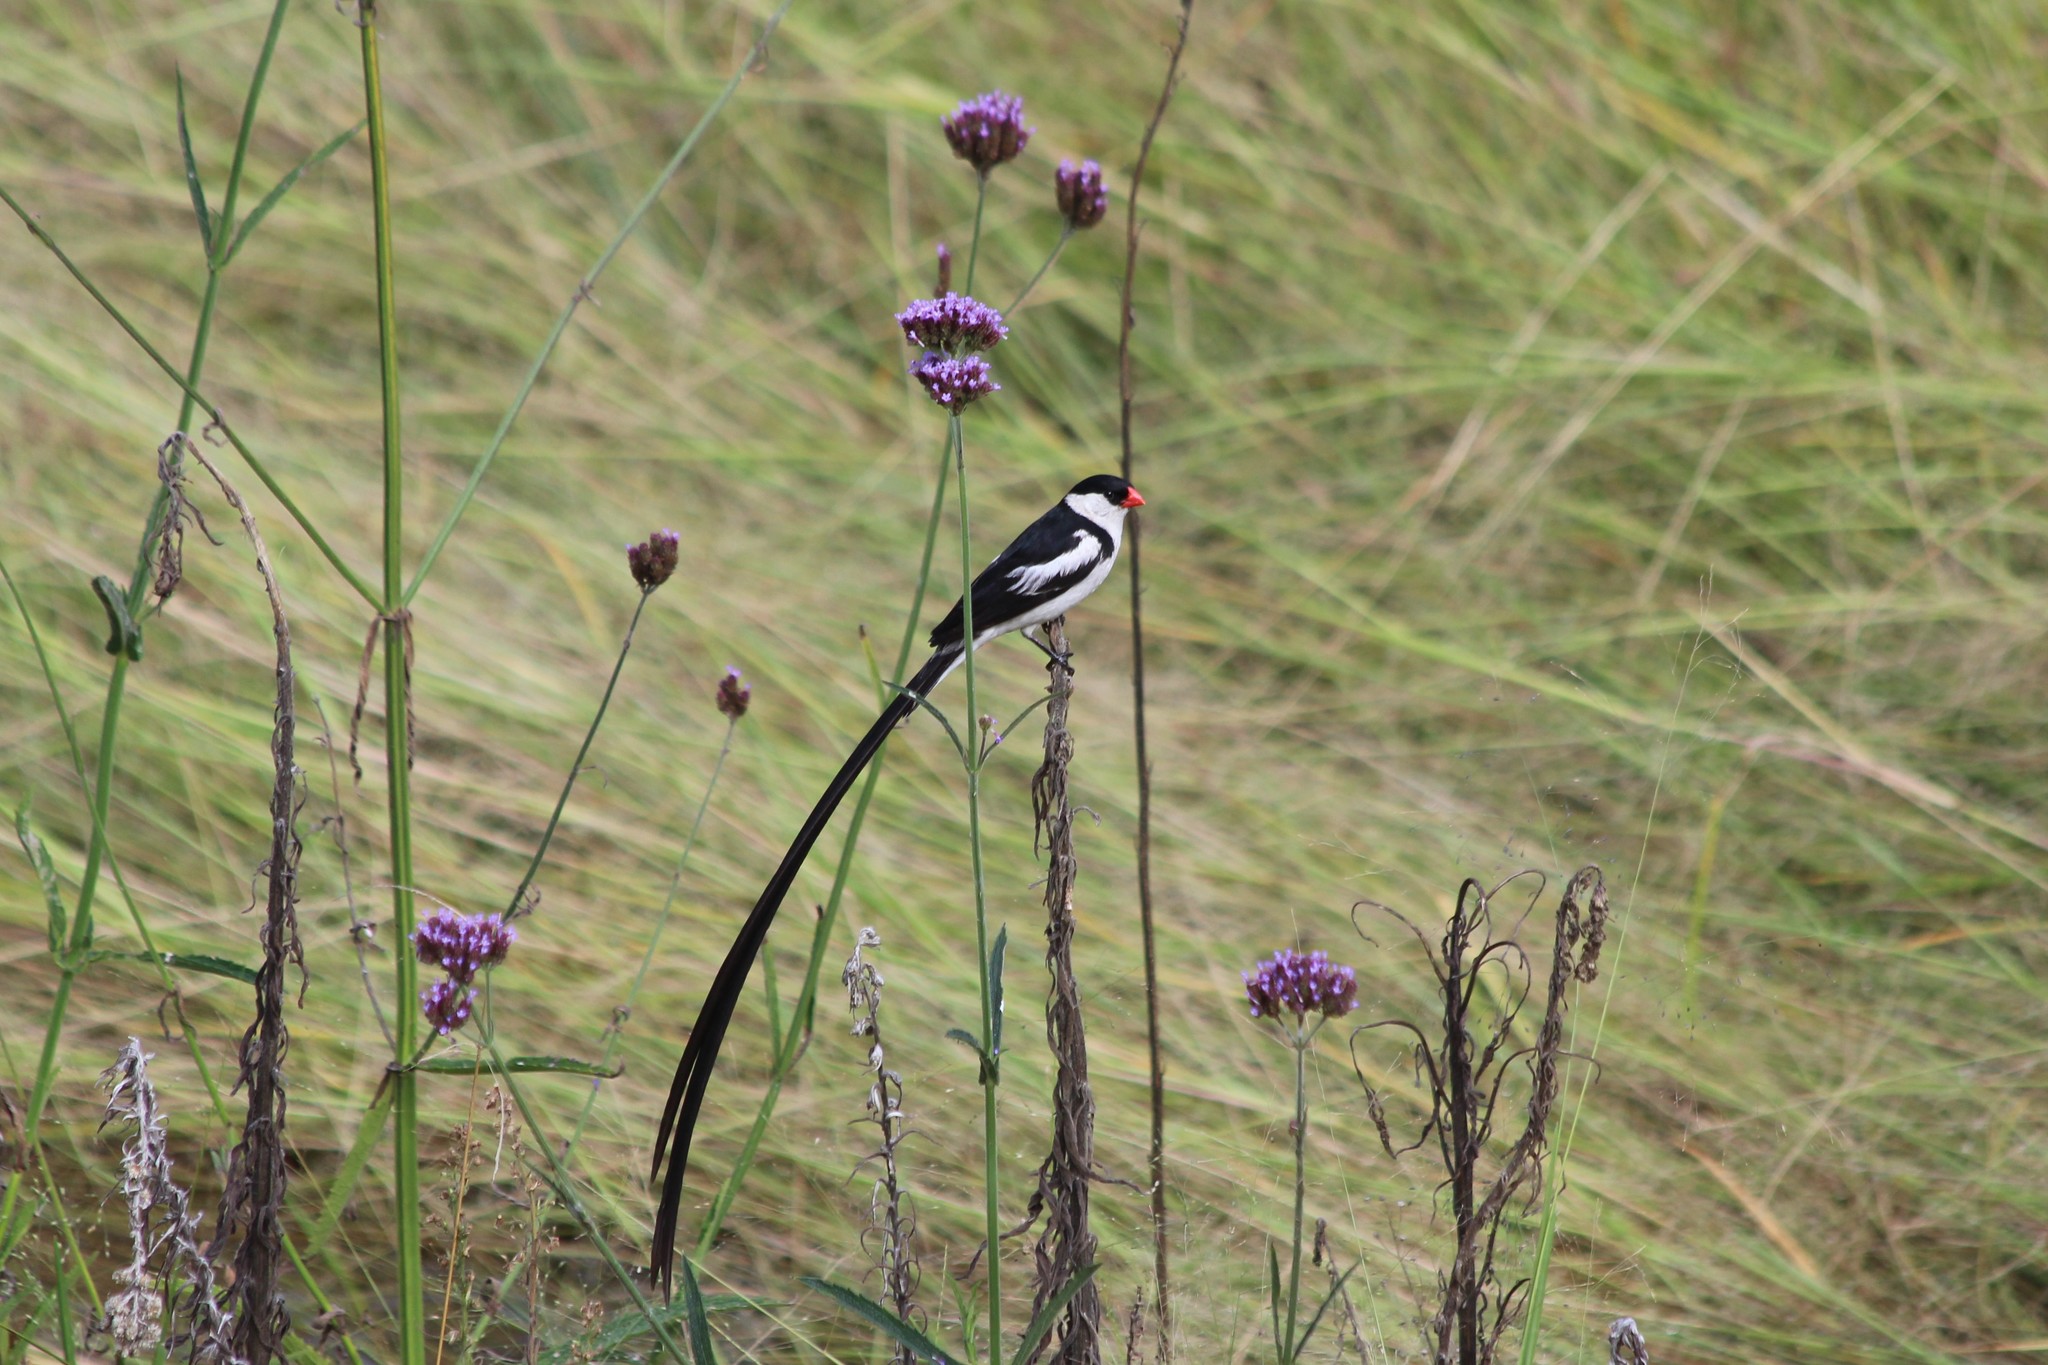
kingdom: Animalia
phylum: Chordata
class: Aves
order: Passeriformes
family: Viduidae
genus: Vidua
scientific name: Vidua macroura
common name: Pin-tailed whydah
